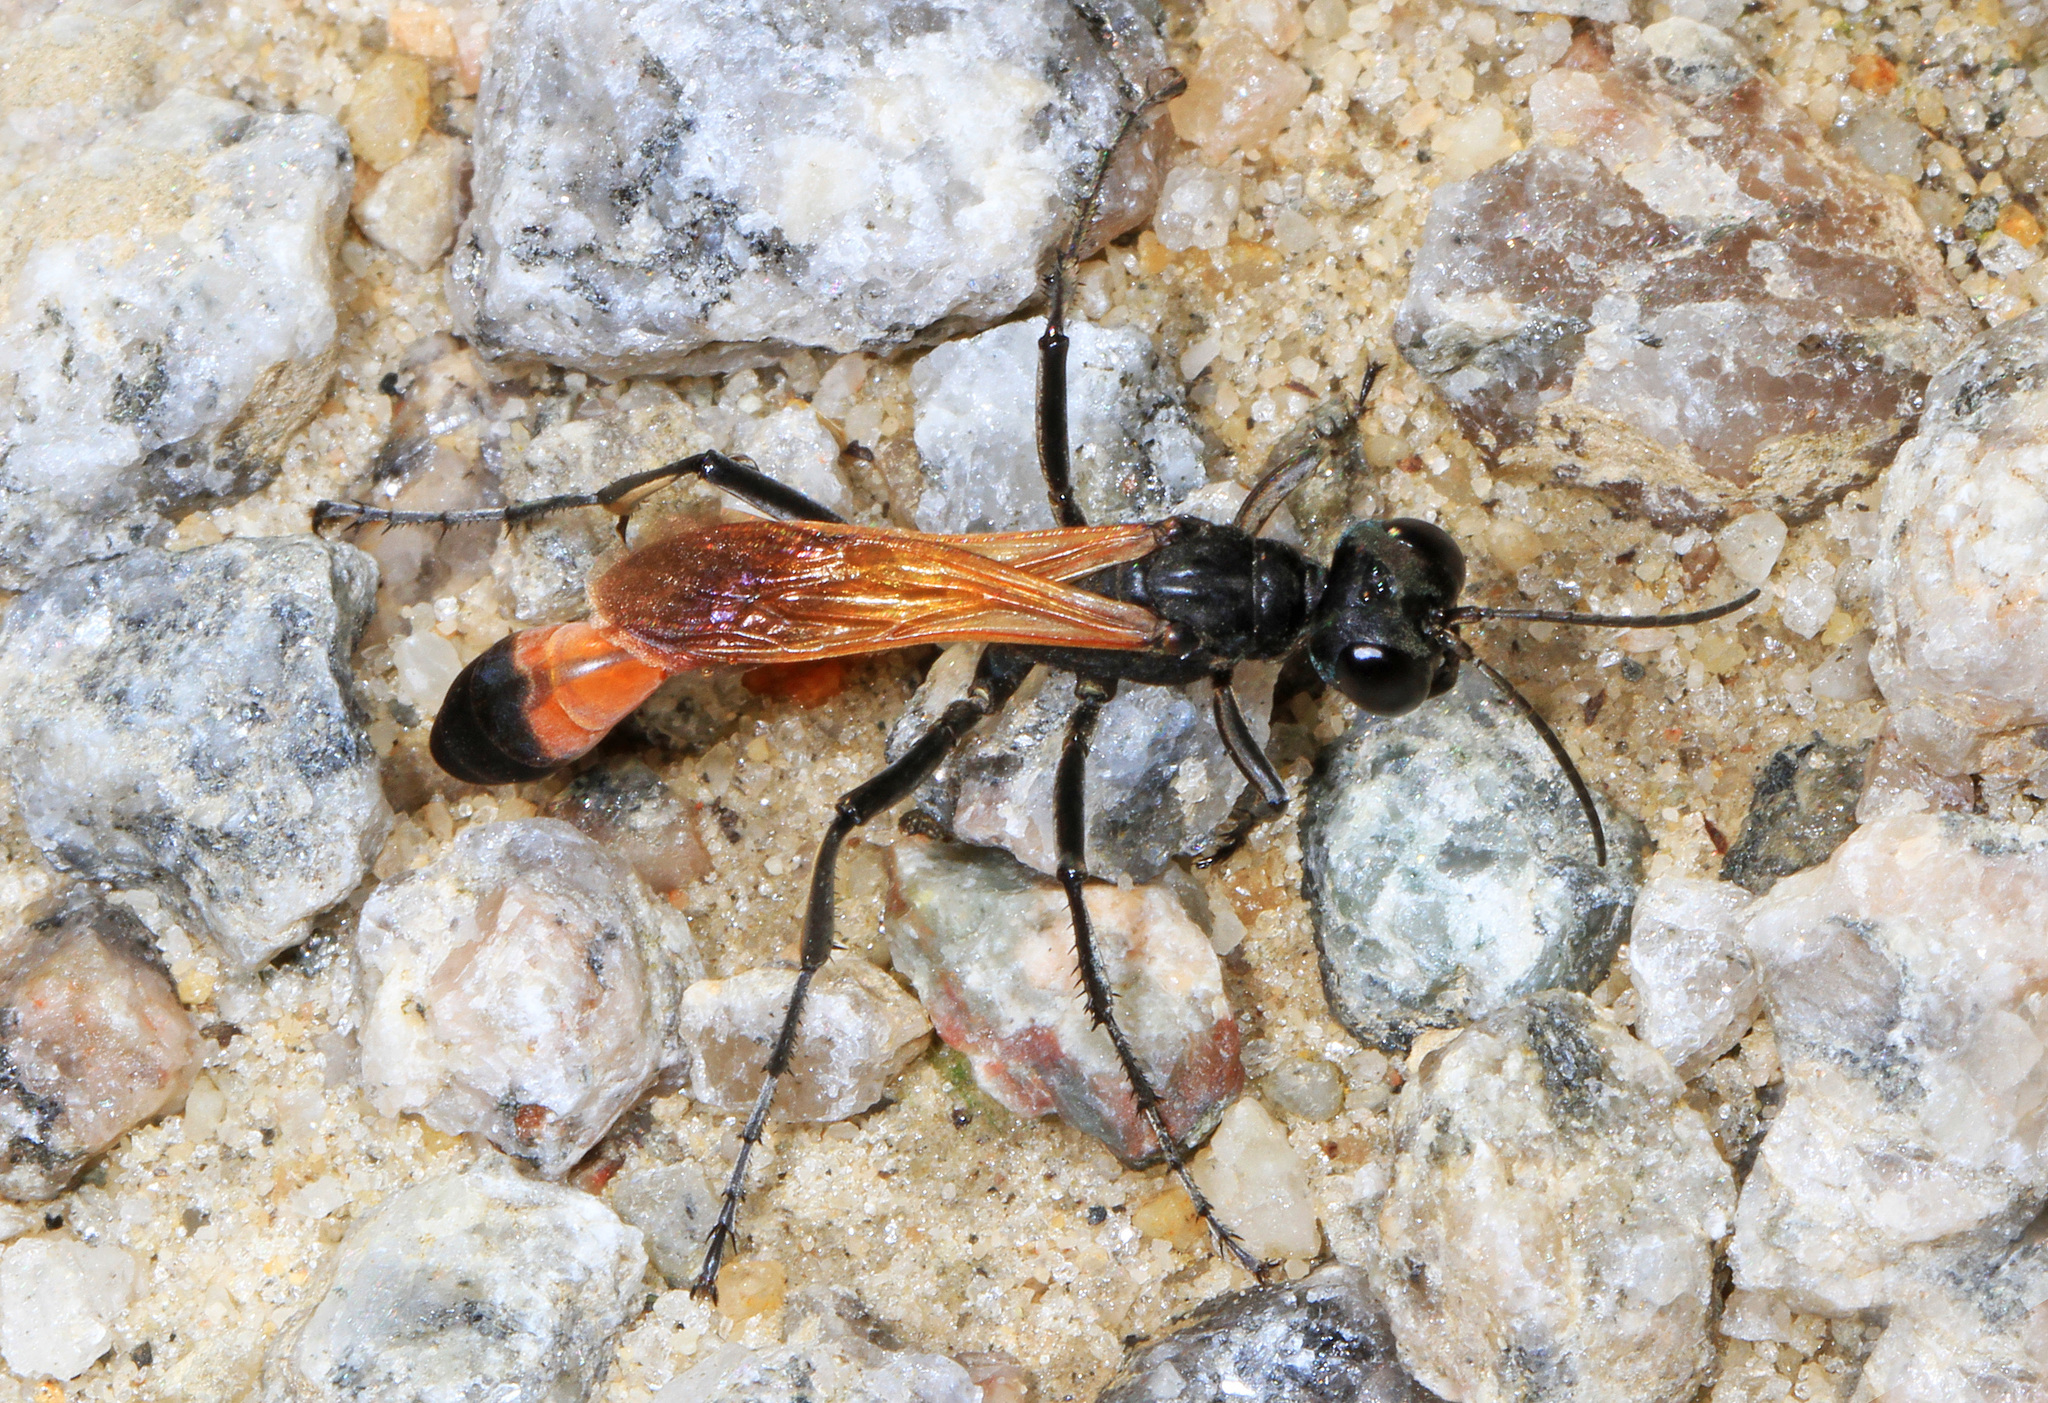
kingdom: Animalia
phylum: Arthropoda
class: Insecta
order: Hymenoptera
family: Sphecidae
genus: Ammophila
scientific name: Ammophila pictipennis
